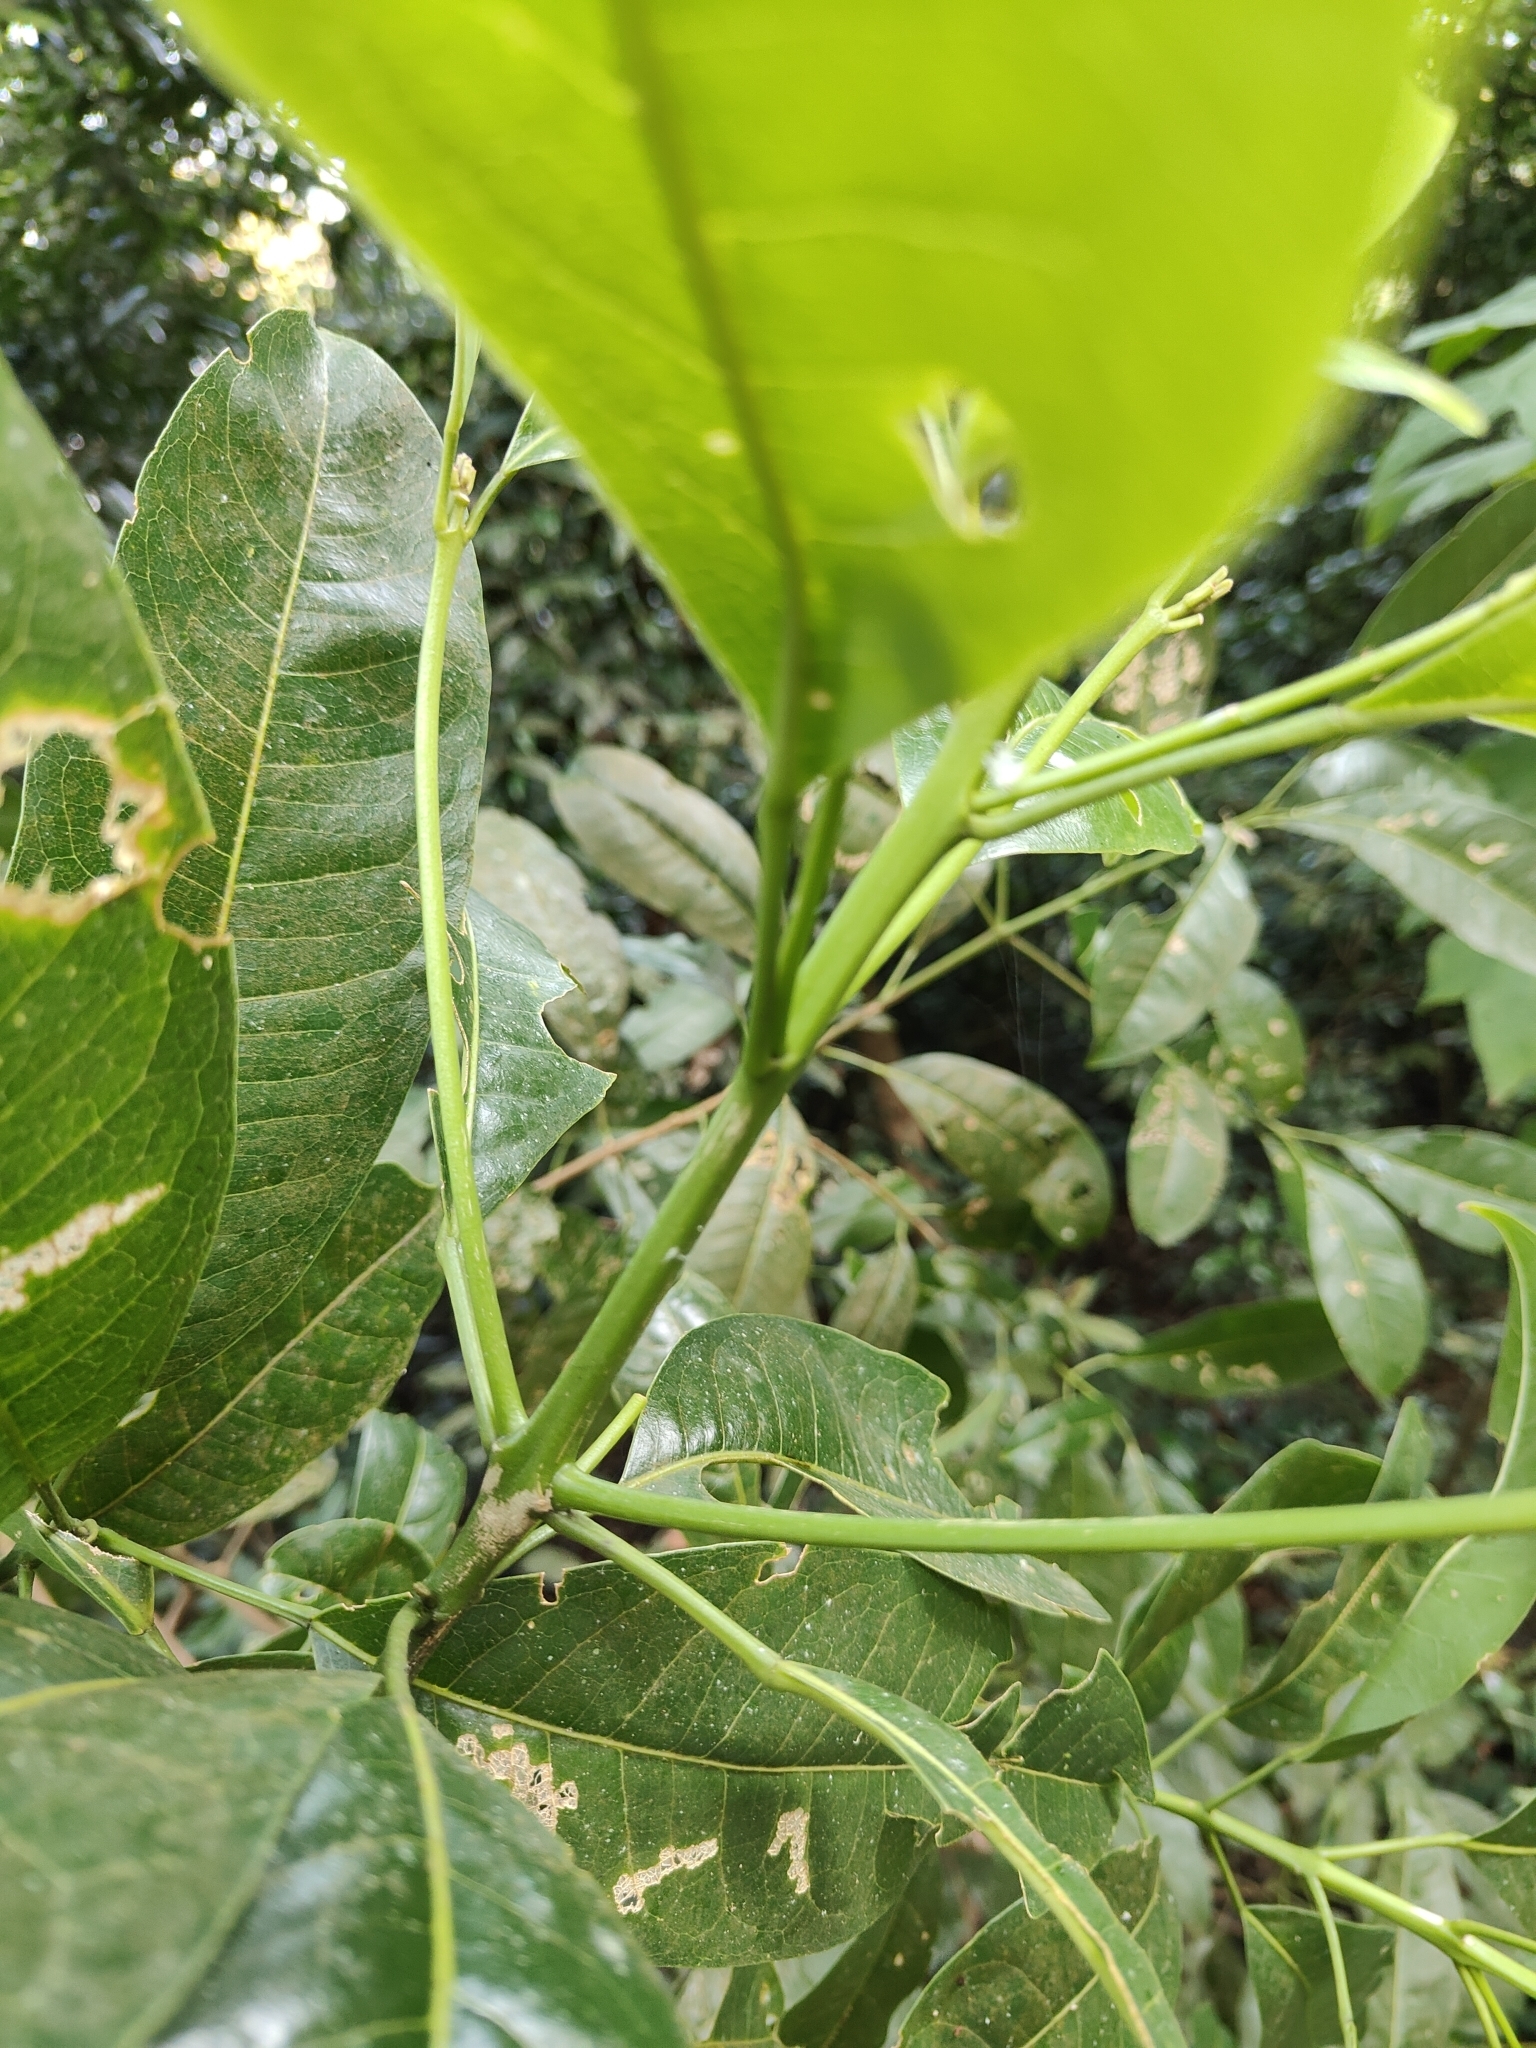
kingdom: Plantae
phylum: Tracheophyta
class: Magnoliopsida
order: Sapindales
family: Rutaceae
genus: Acronychia
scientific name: Acronychia pedunculata
